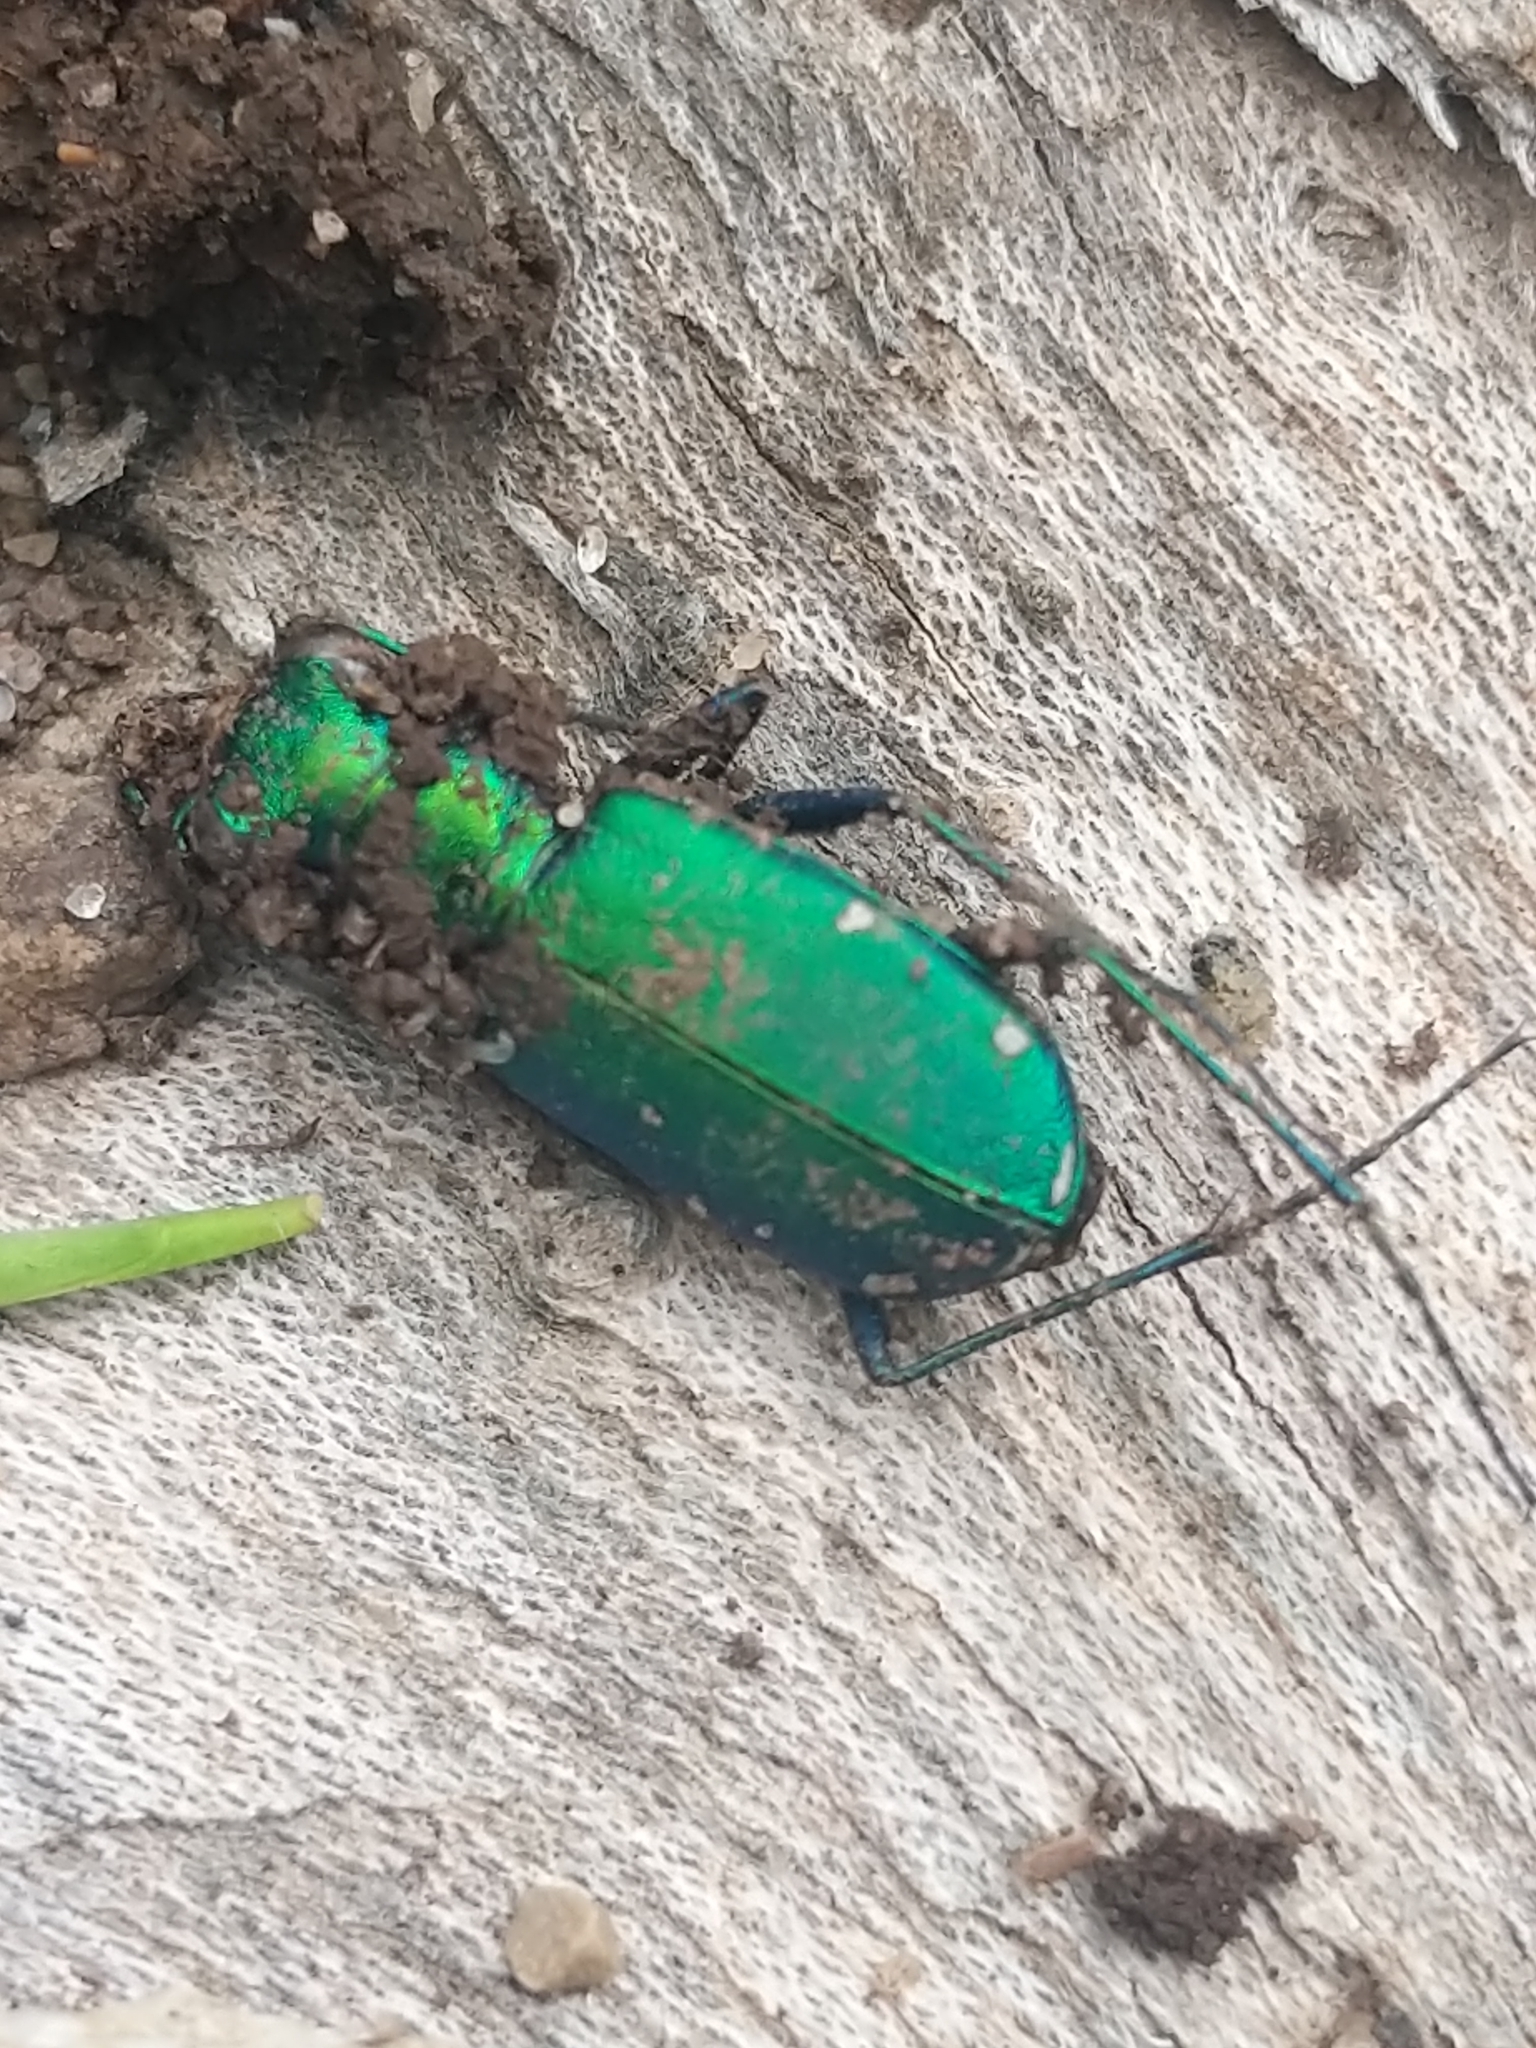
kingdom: Animalia
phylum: Arthropoda
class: Insecta
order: Coleoptera
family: Carabidae
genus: Cicindela
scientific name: Cicindela sexguttata
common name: Six-spotted tiger beetle
